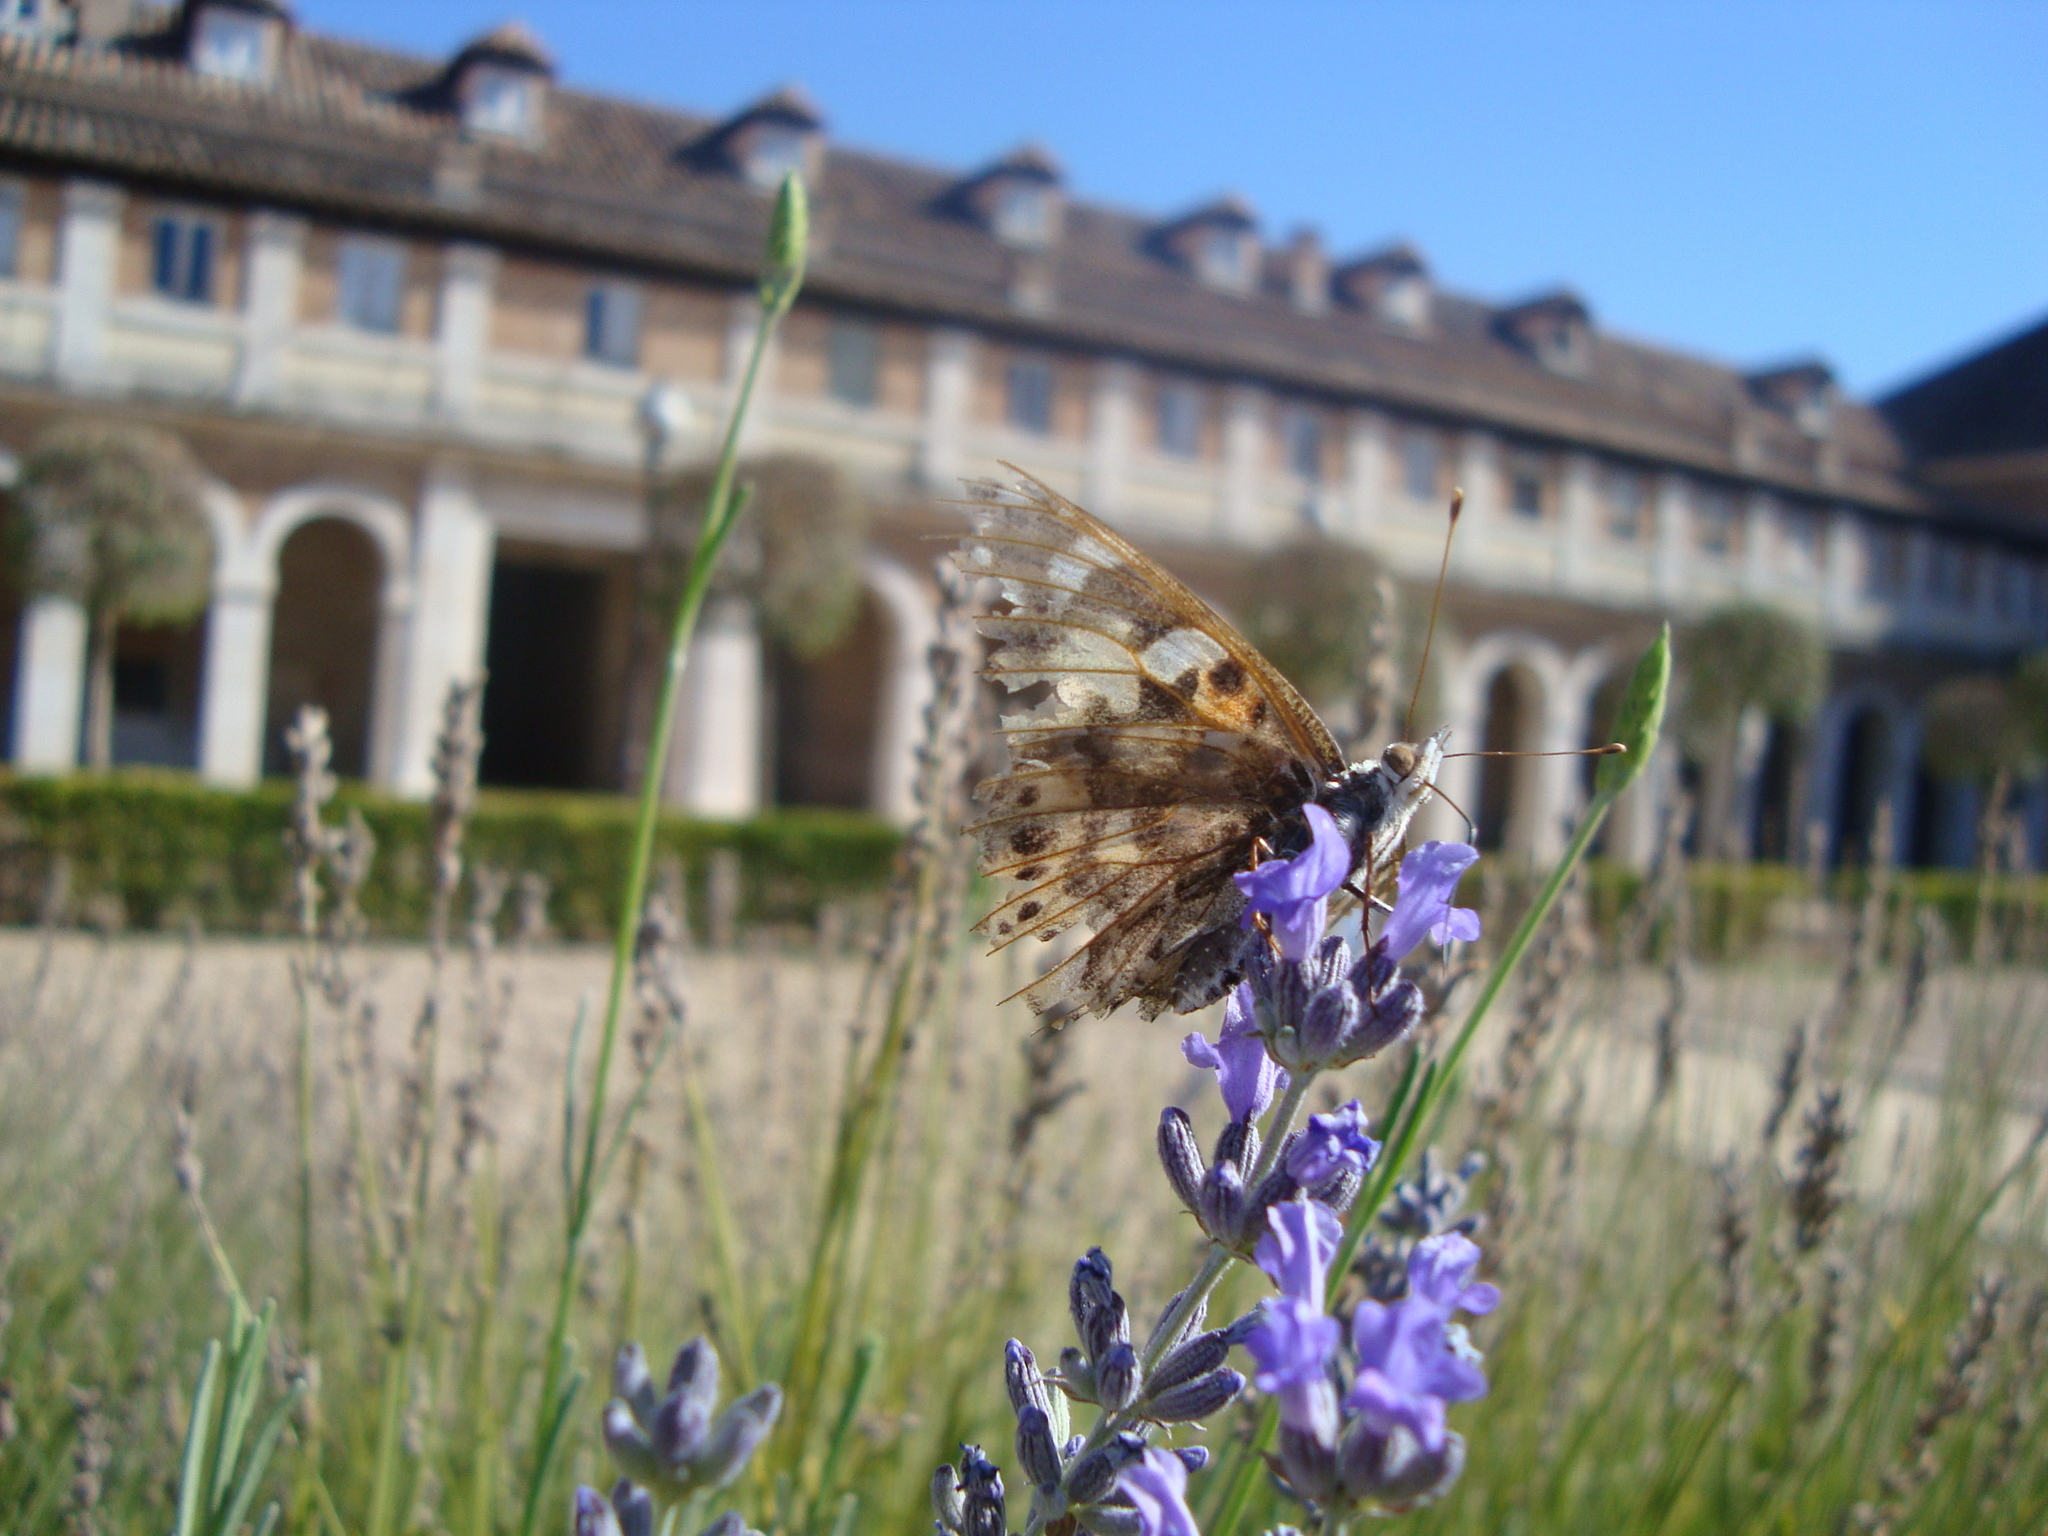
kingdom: Animalia
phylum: Arthropoda
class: Insecta
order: Lepidoptera
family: Nymphalidae
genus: Vanessa
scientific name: Vanessa cardui
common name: Painted lady
